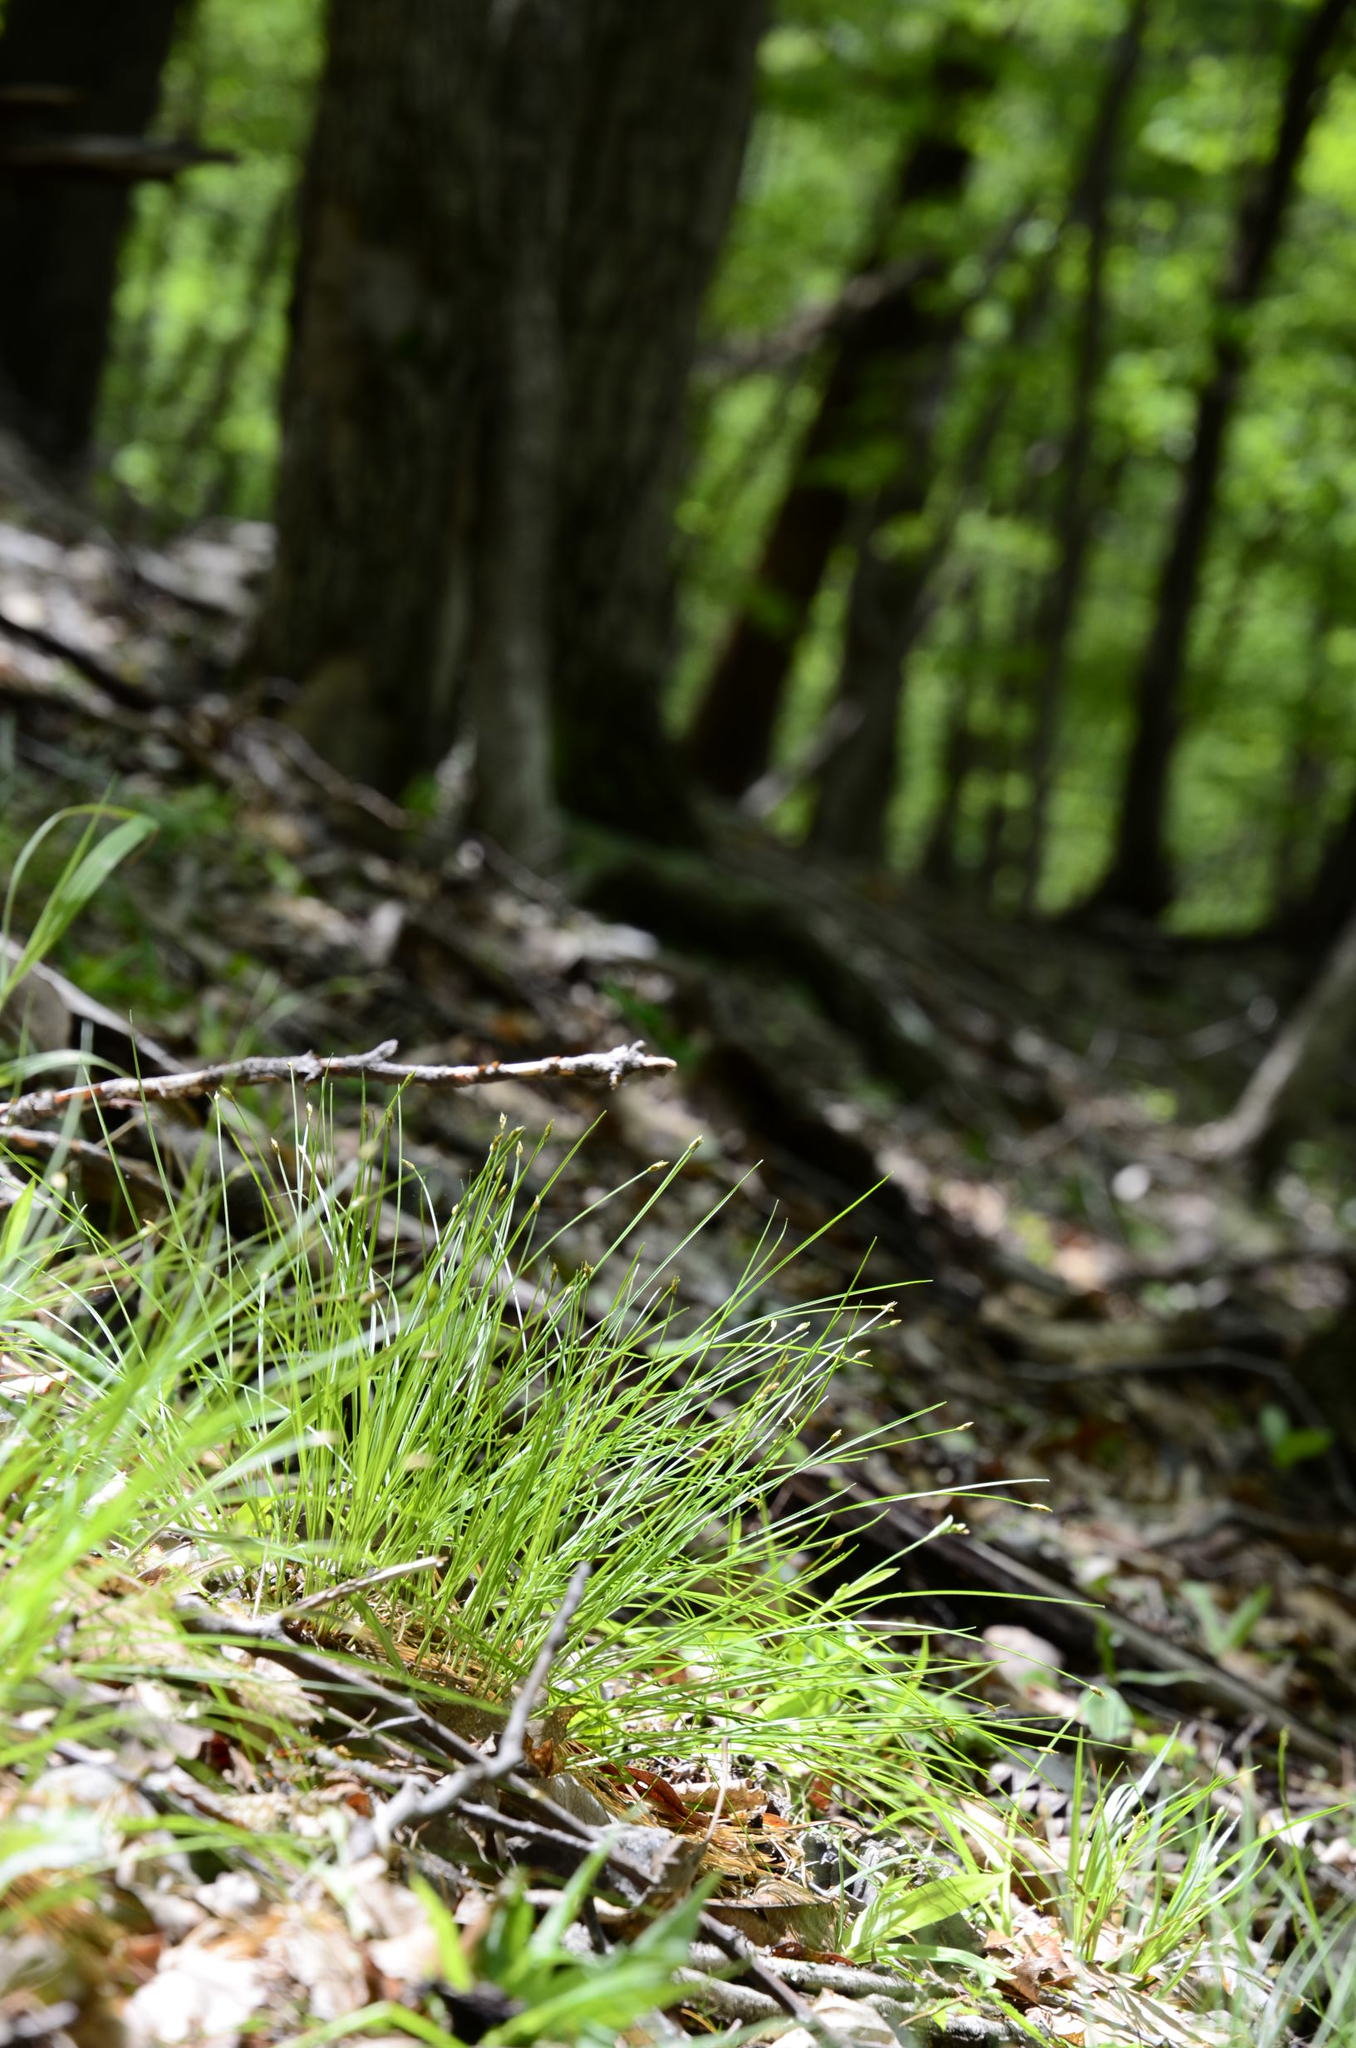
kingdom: Plantae
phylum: Tracheophyta
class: Liliopsida
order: Poales
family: Cyperaceae
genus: Trichophorum
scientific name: Trichophorum planifolium
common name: Bashful bulrush
